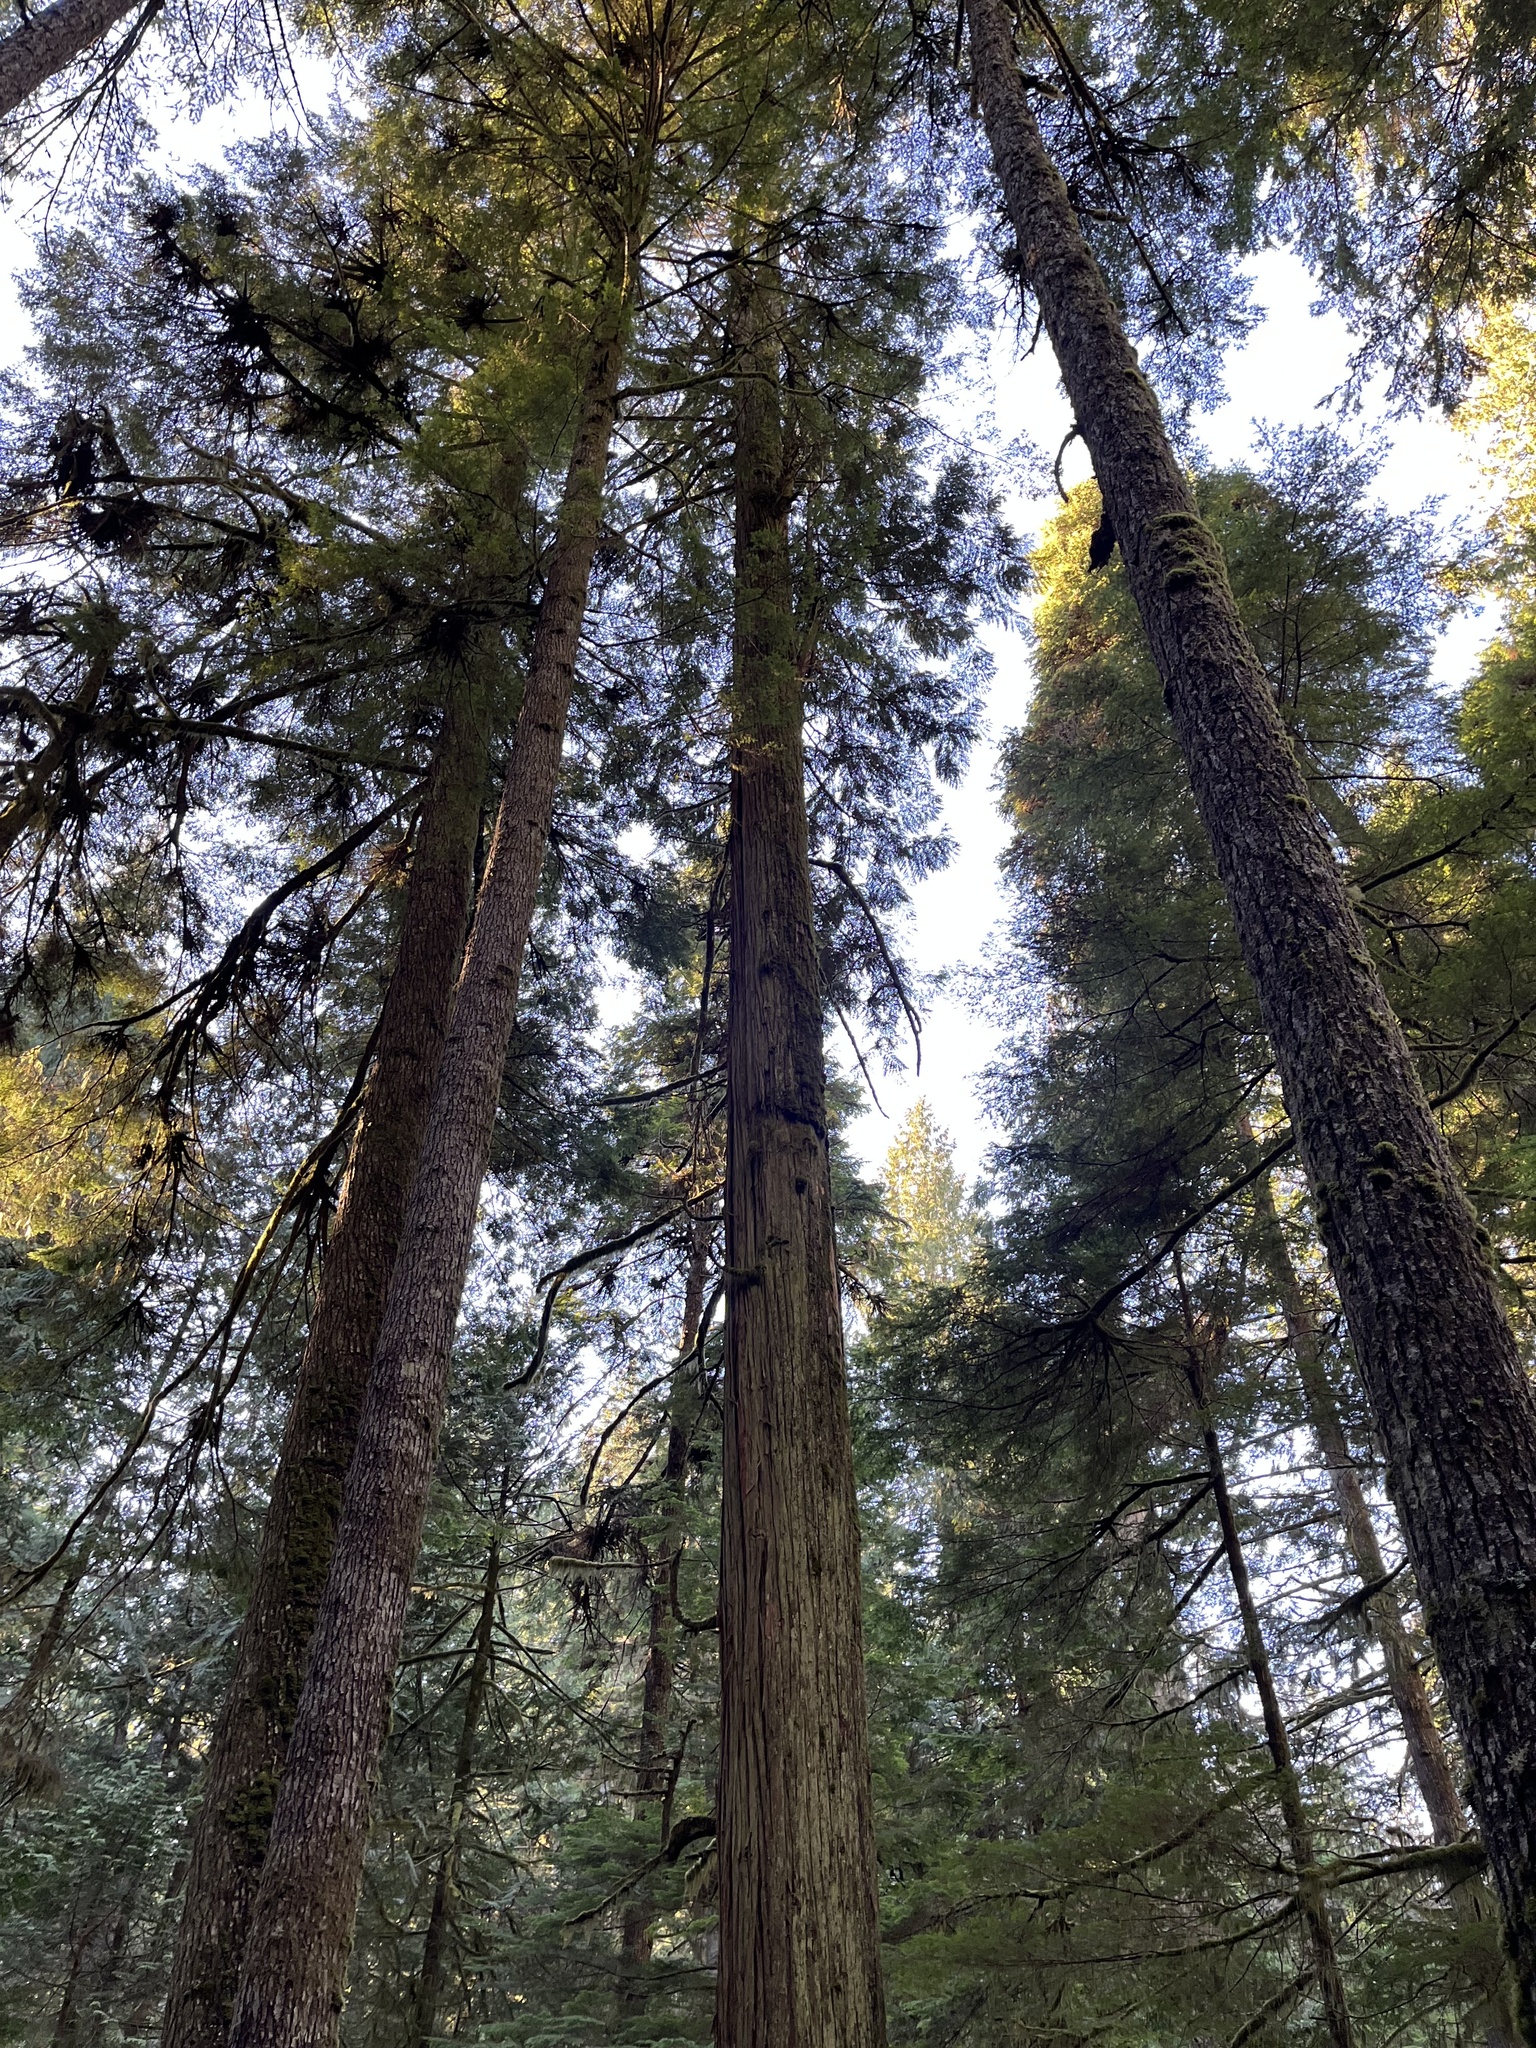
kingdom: Plantae
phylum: Tracheophyta
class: Pinopsida
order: Pinales
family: Cupressaceae
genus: Thuja
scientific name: Thuja plicata
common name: Western red-cedar
